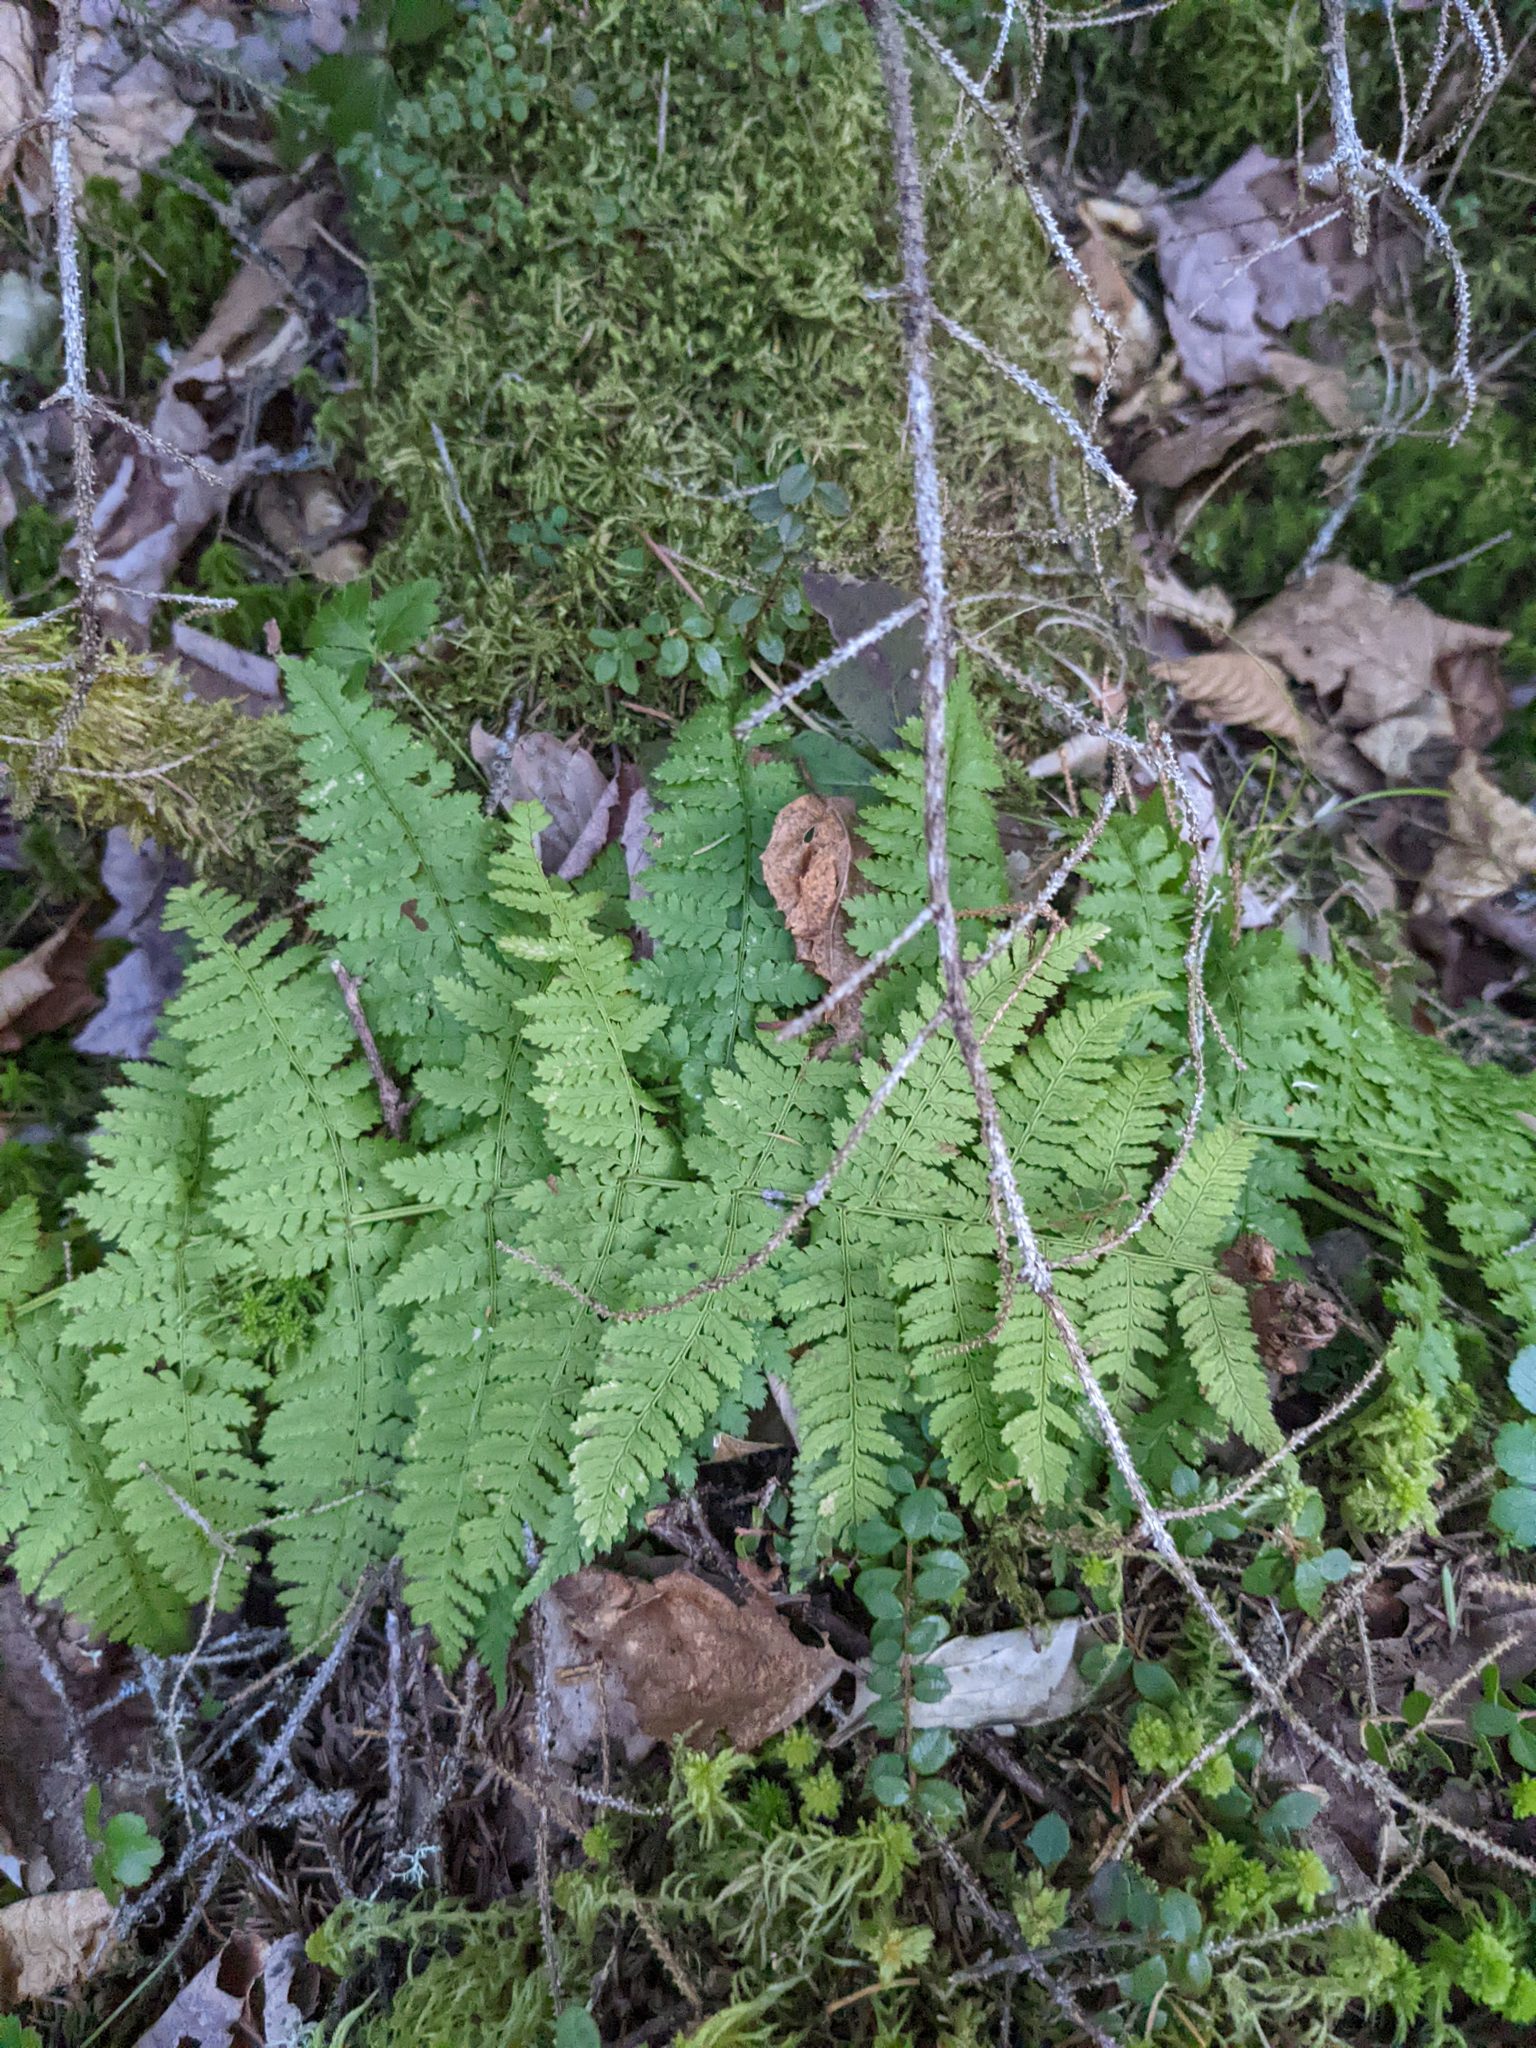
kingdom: Plantae
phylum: Tracheophyta
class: Polypodiopsida
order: Polypodiales
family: Dryopteridaceae
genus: Dryopteris
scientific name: Dryopteris intermedia
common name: Evergreen wood fern
